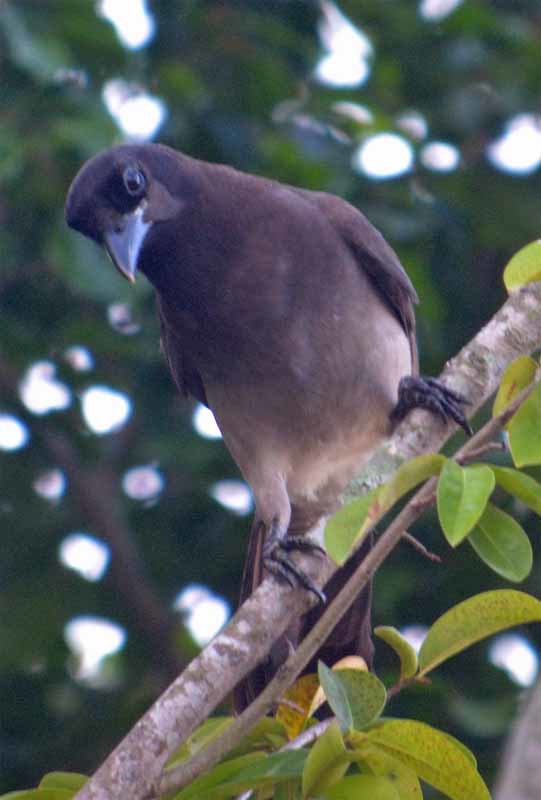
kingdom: Animalia
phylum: Chordata
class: Aves
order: Passeriformes
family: Corvidae
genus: Psilorhinus
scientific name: Psilorhinus morio
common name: Brown jay
